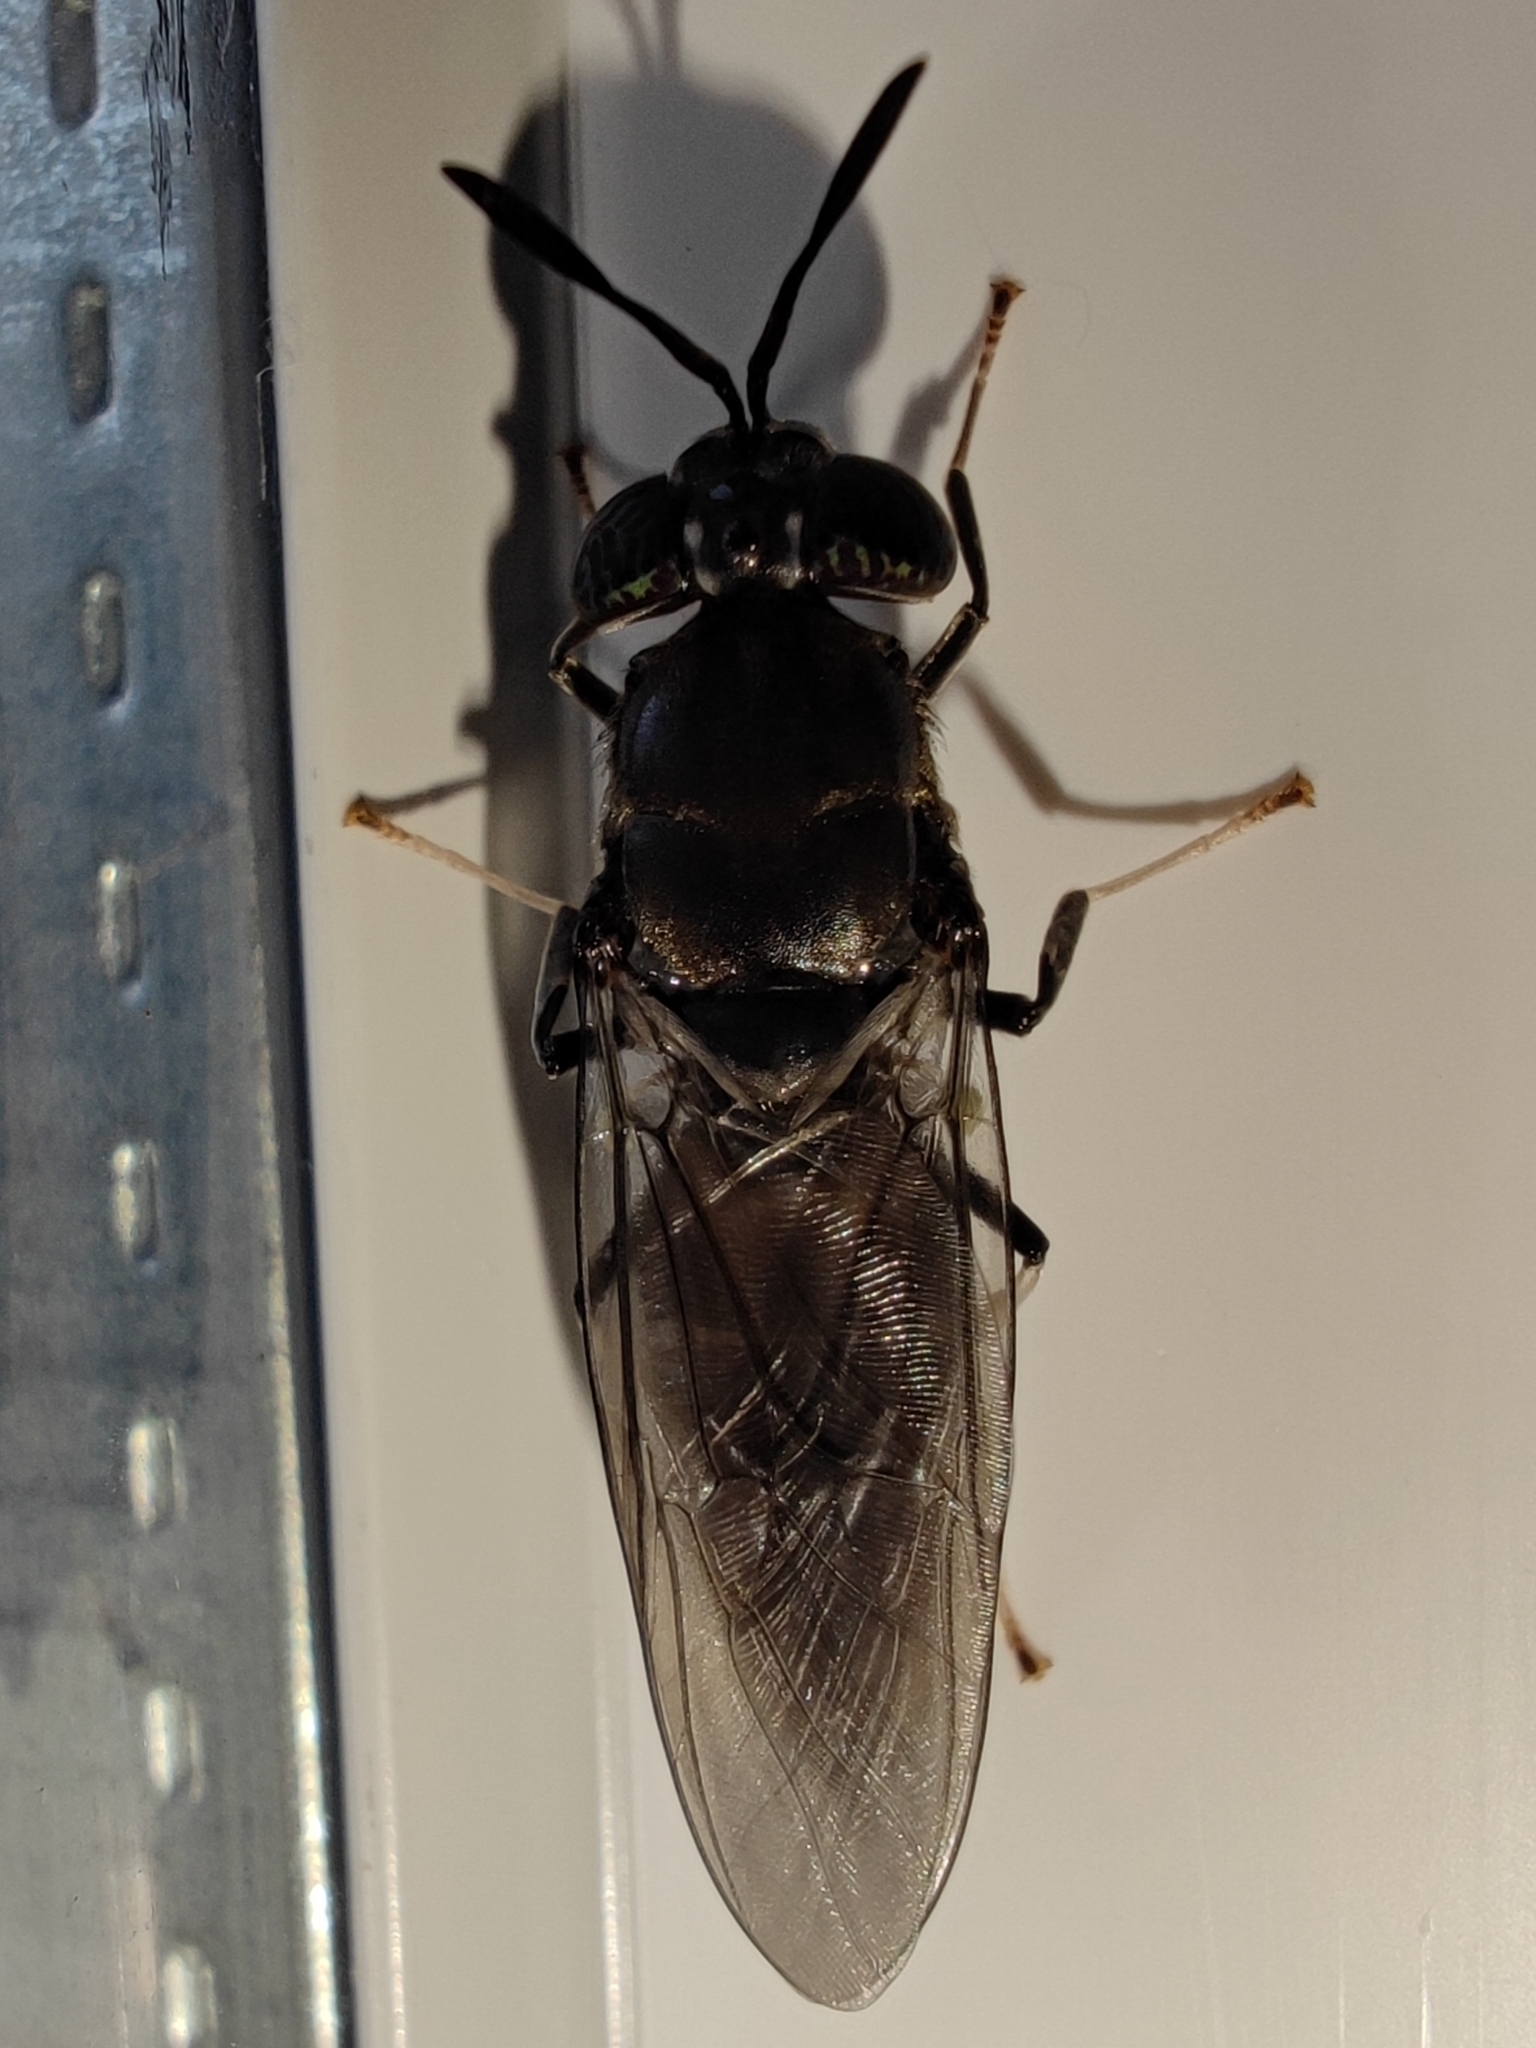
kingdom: Animalia
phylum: Arthropoda
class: Insecta
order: Diptera
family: Stratiomyidae
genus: Hermetia
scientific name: Hermetia illucens
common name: Black soldier fly
